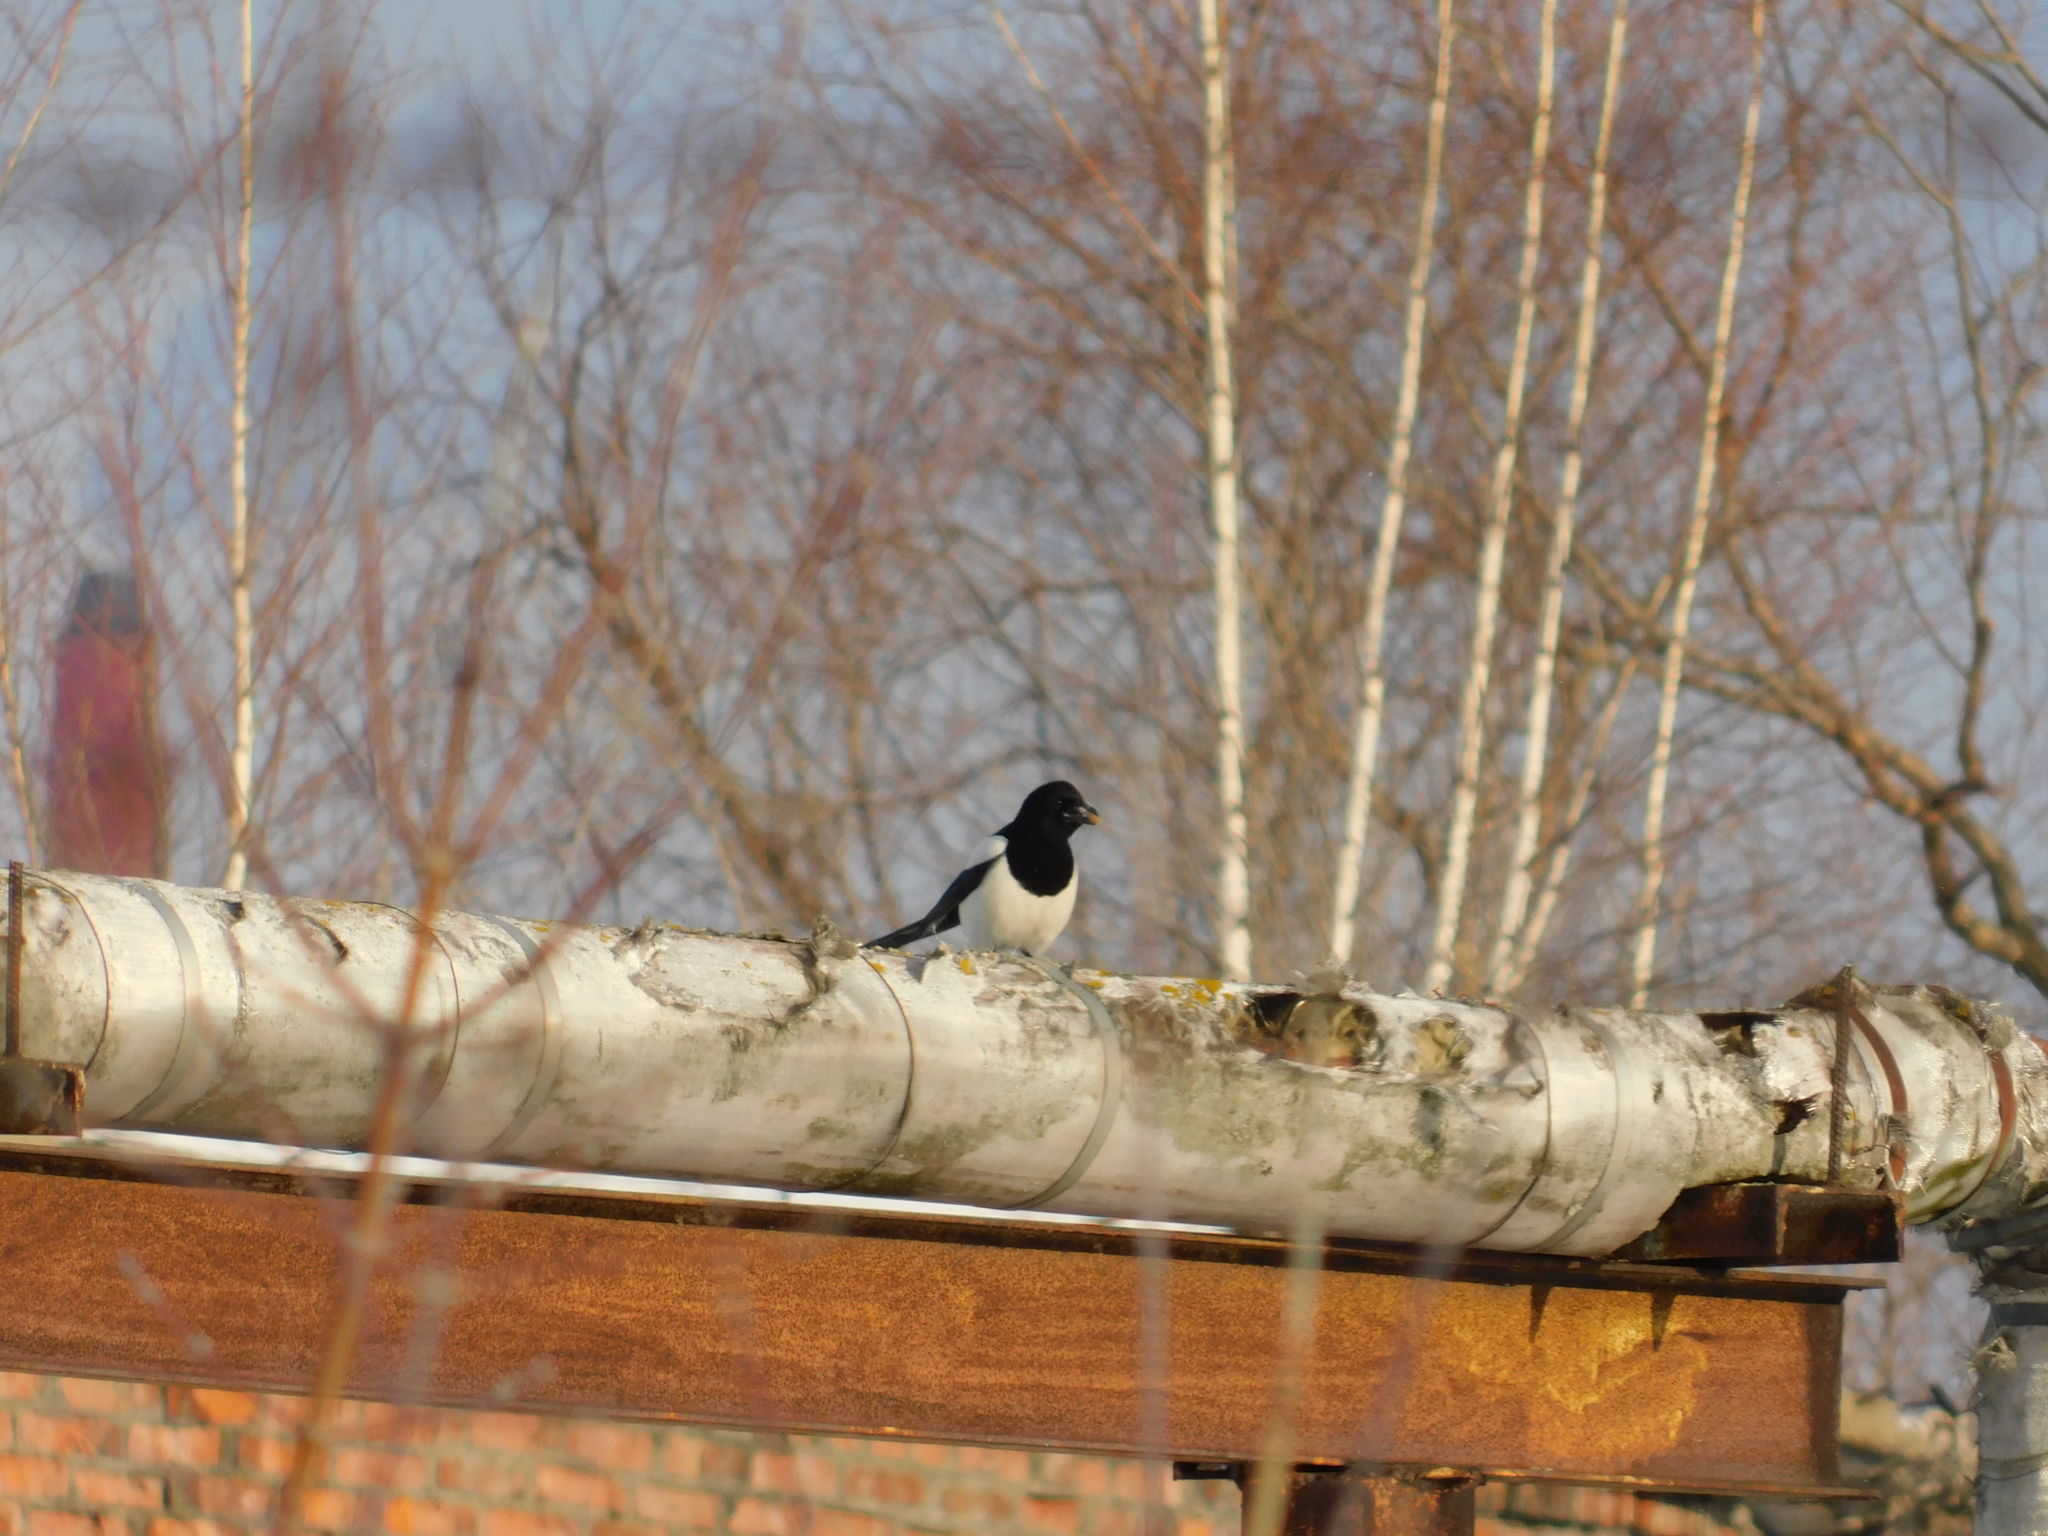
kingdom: Animalia
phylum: Chordata
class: Aves
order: Passeriformes
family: Corvidae
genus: Pica
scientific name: Pica pica
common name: Eurasian magpie
